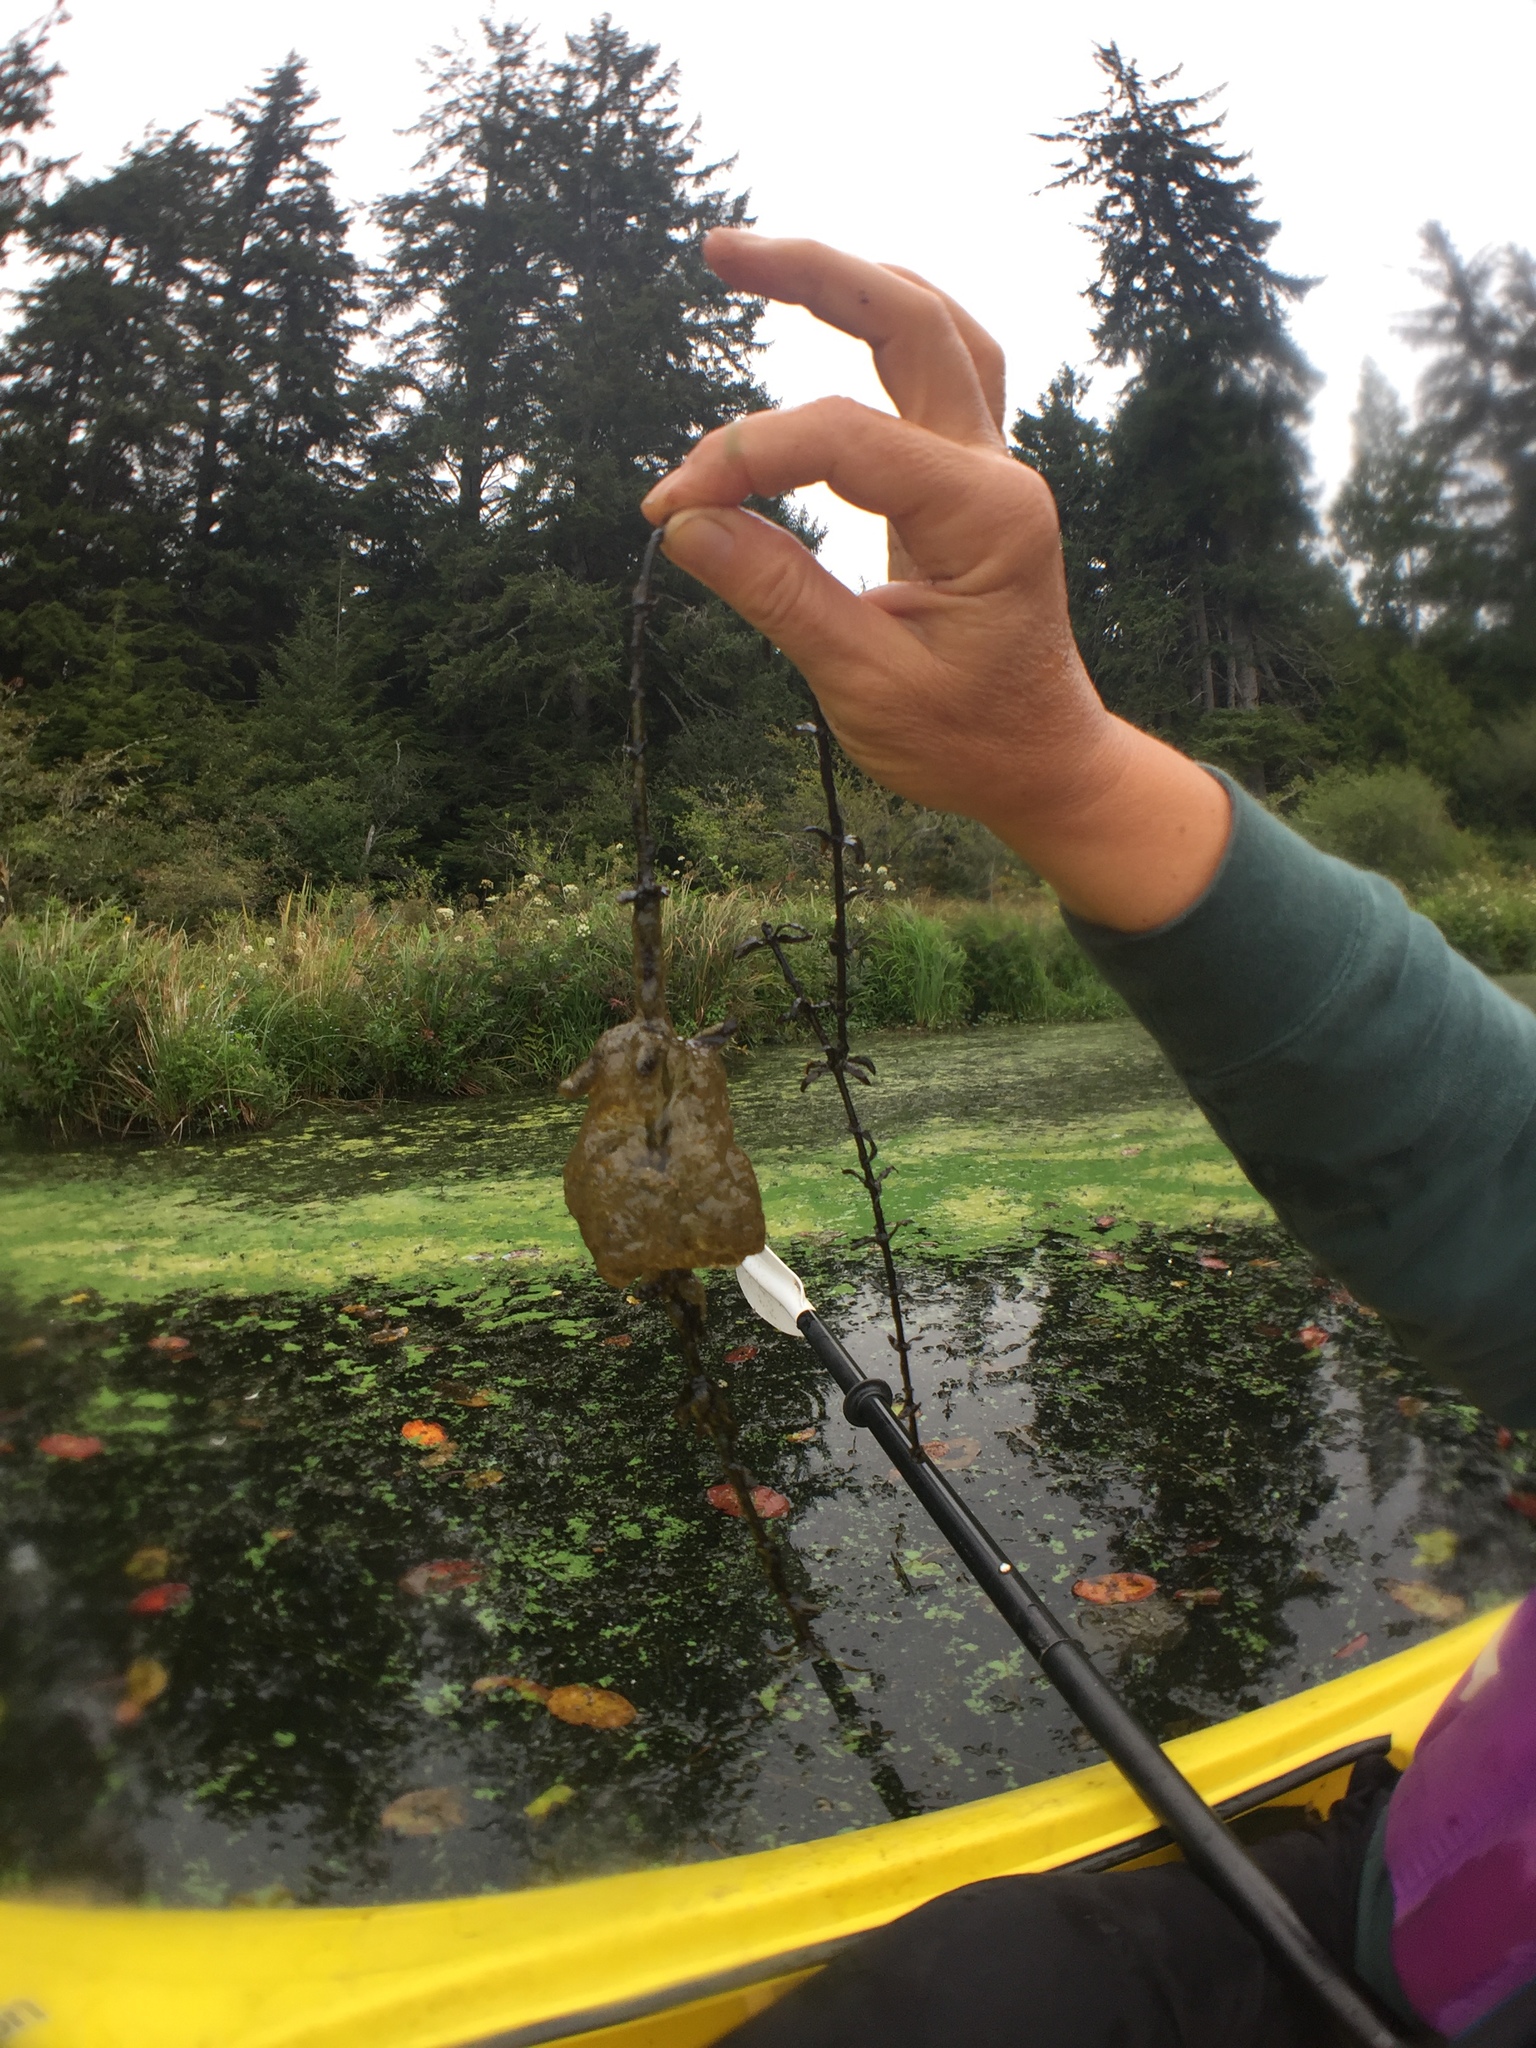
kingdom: Animalia
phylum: Bryozoa
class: Phylactolaemata
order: Plumatellida
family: Pectinatellidae
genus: Pectinatella
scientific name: Pectinatella magnifica
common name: Magnificent bryozoan
